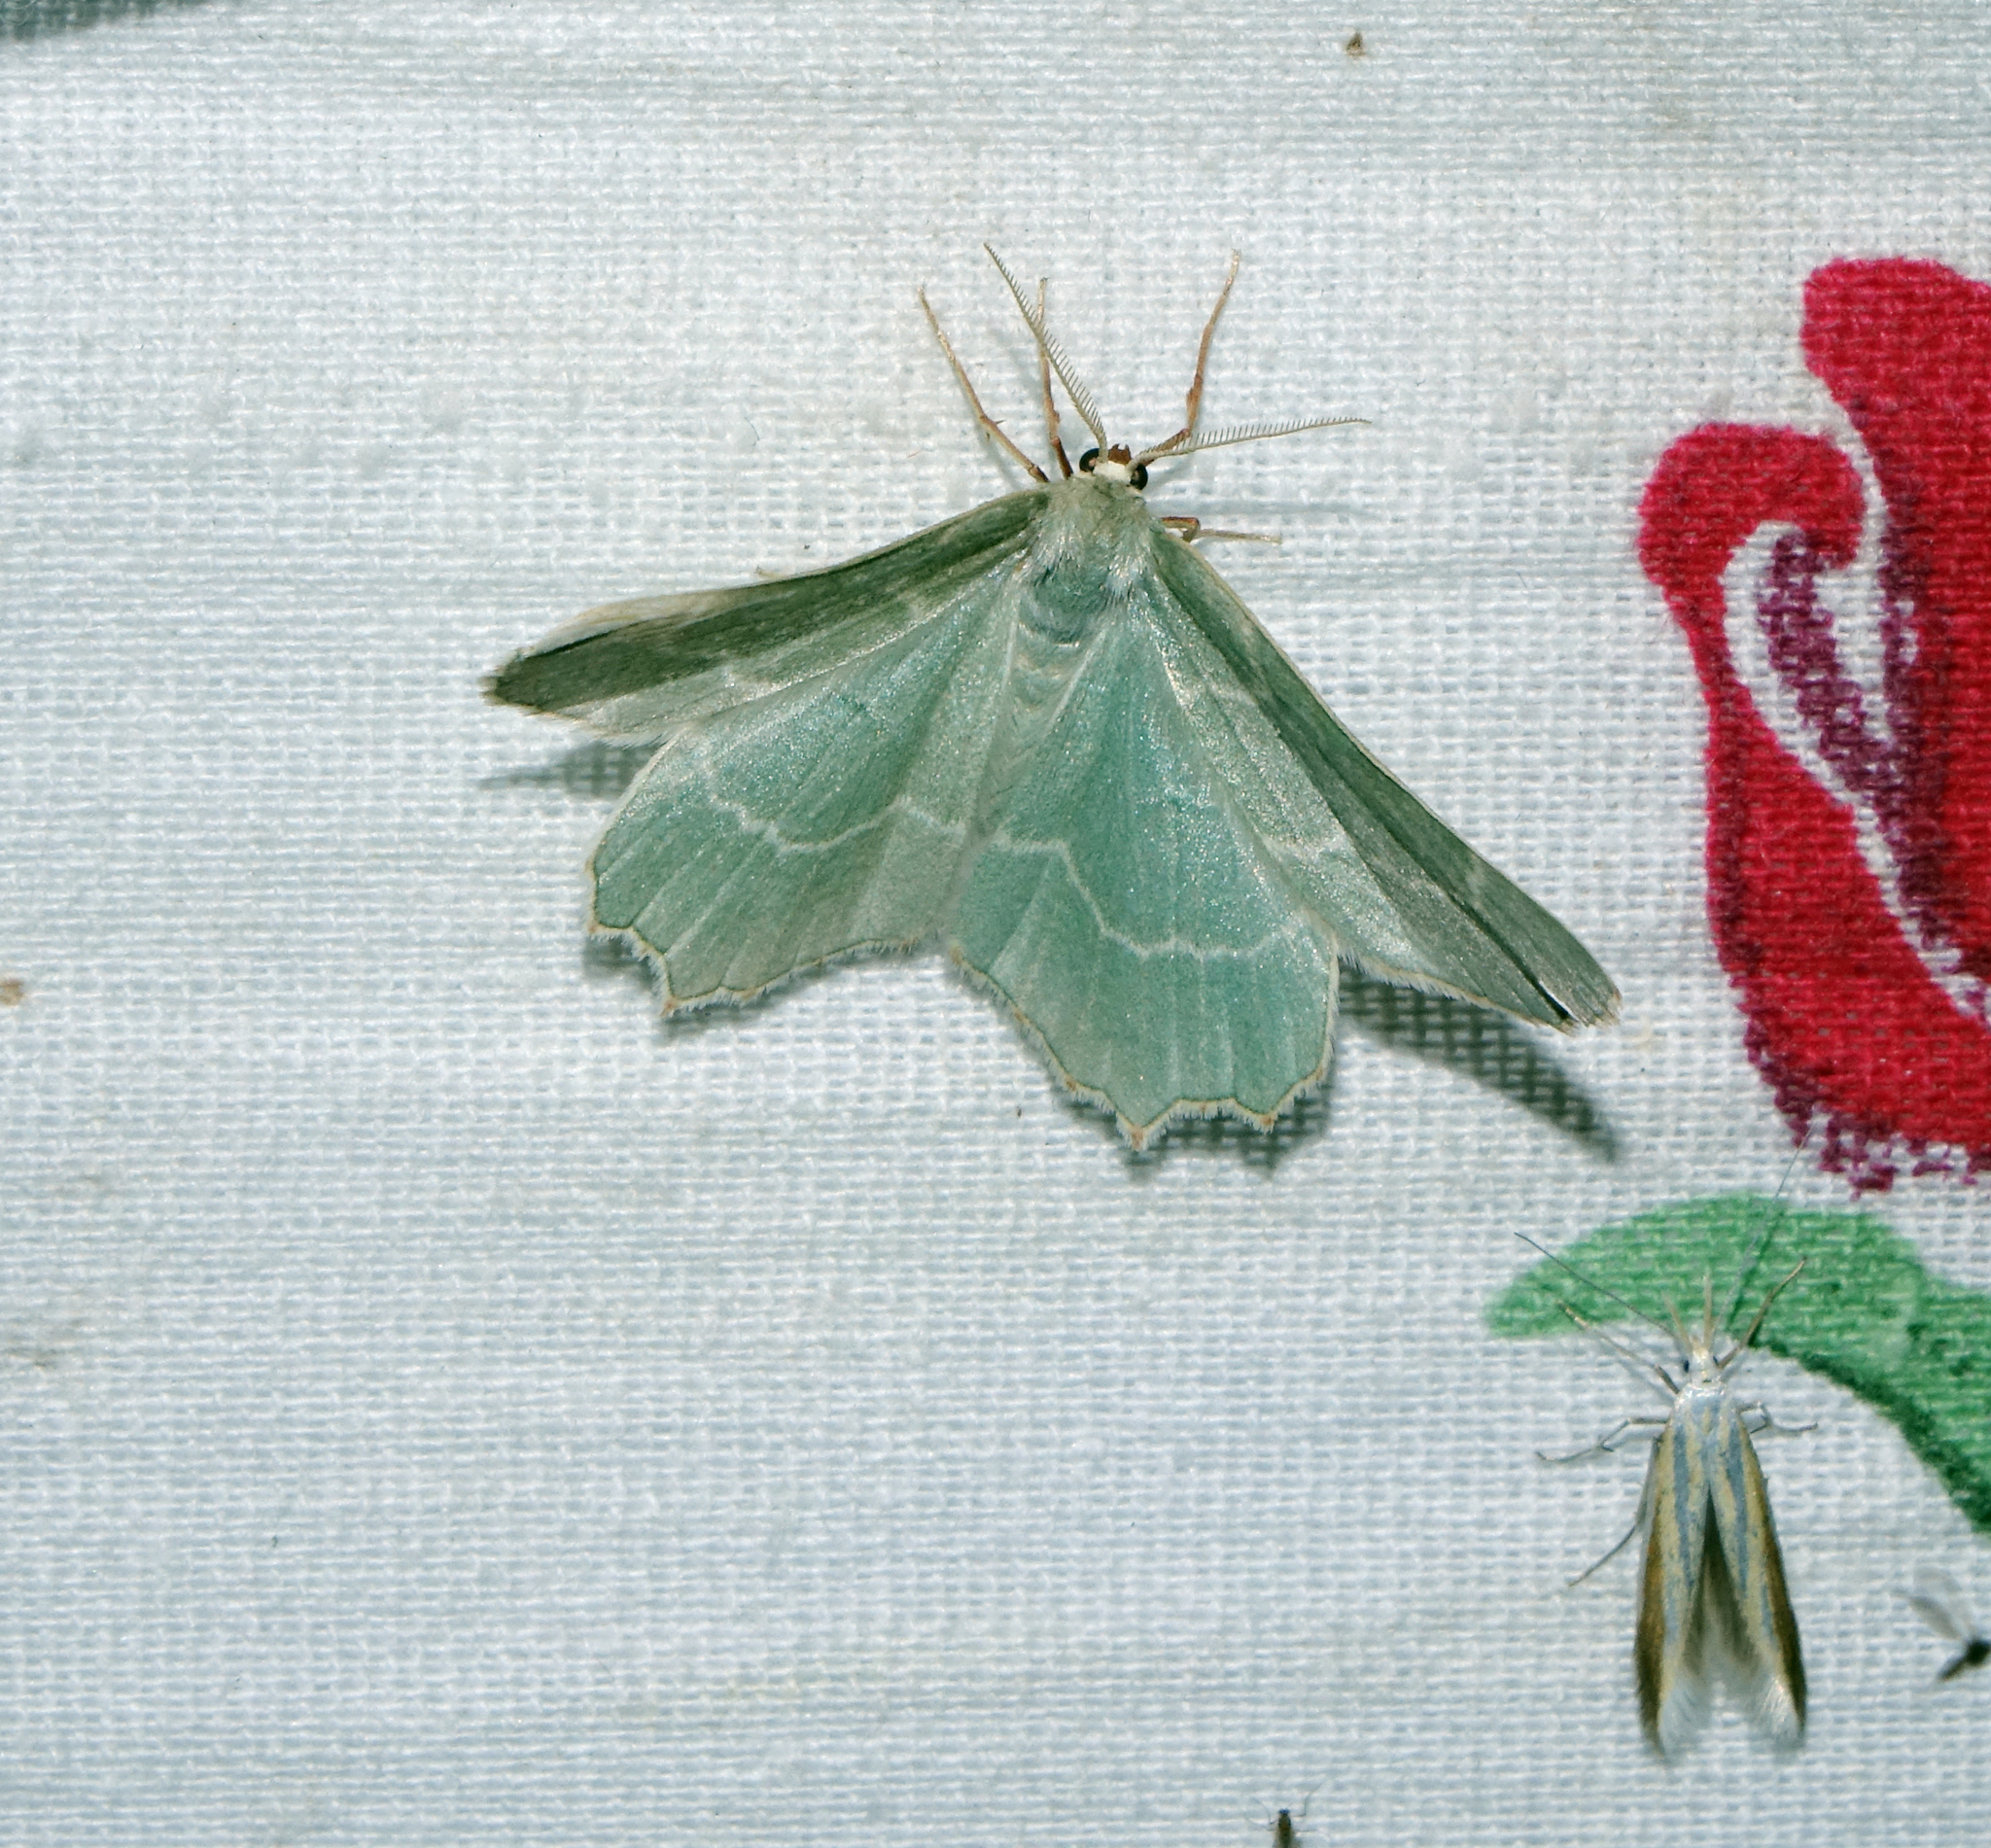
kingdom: Animalia
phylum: Arthropoda
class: Insecta
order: Lepidoptera
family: Geometridae
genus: Thalera
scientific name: Thalera fimbrialis
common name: Sussex emerald
